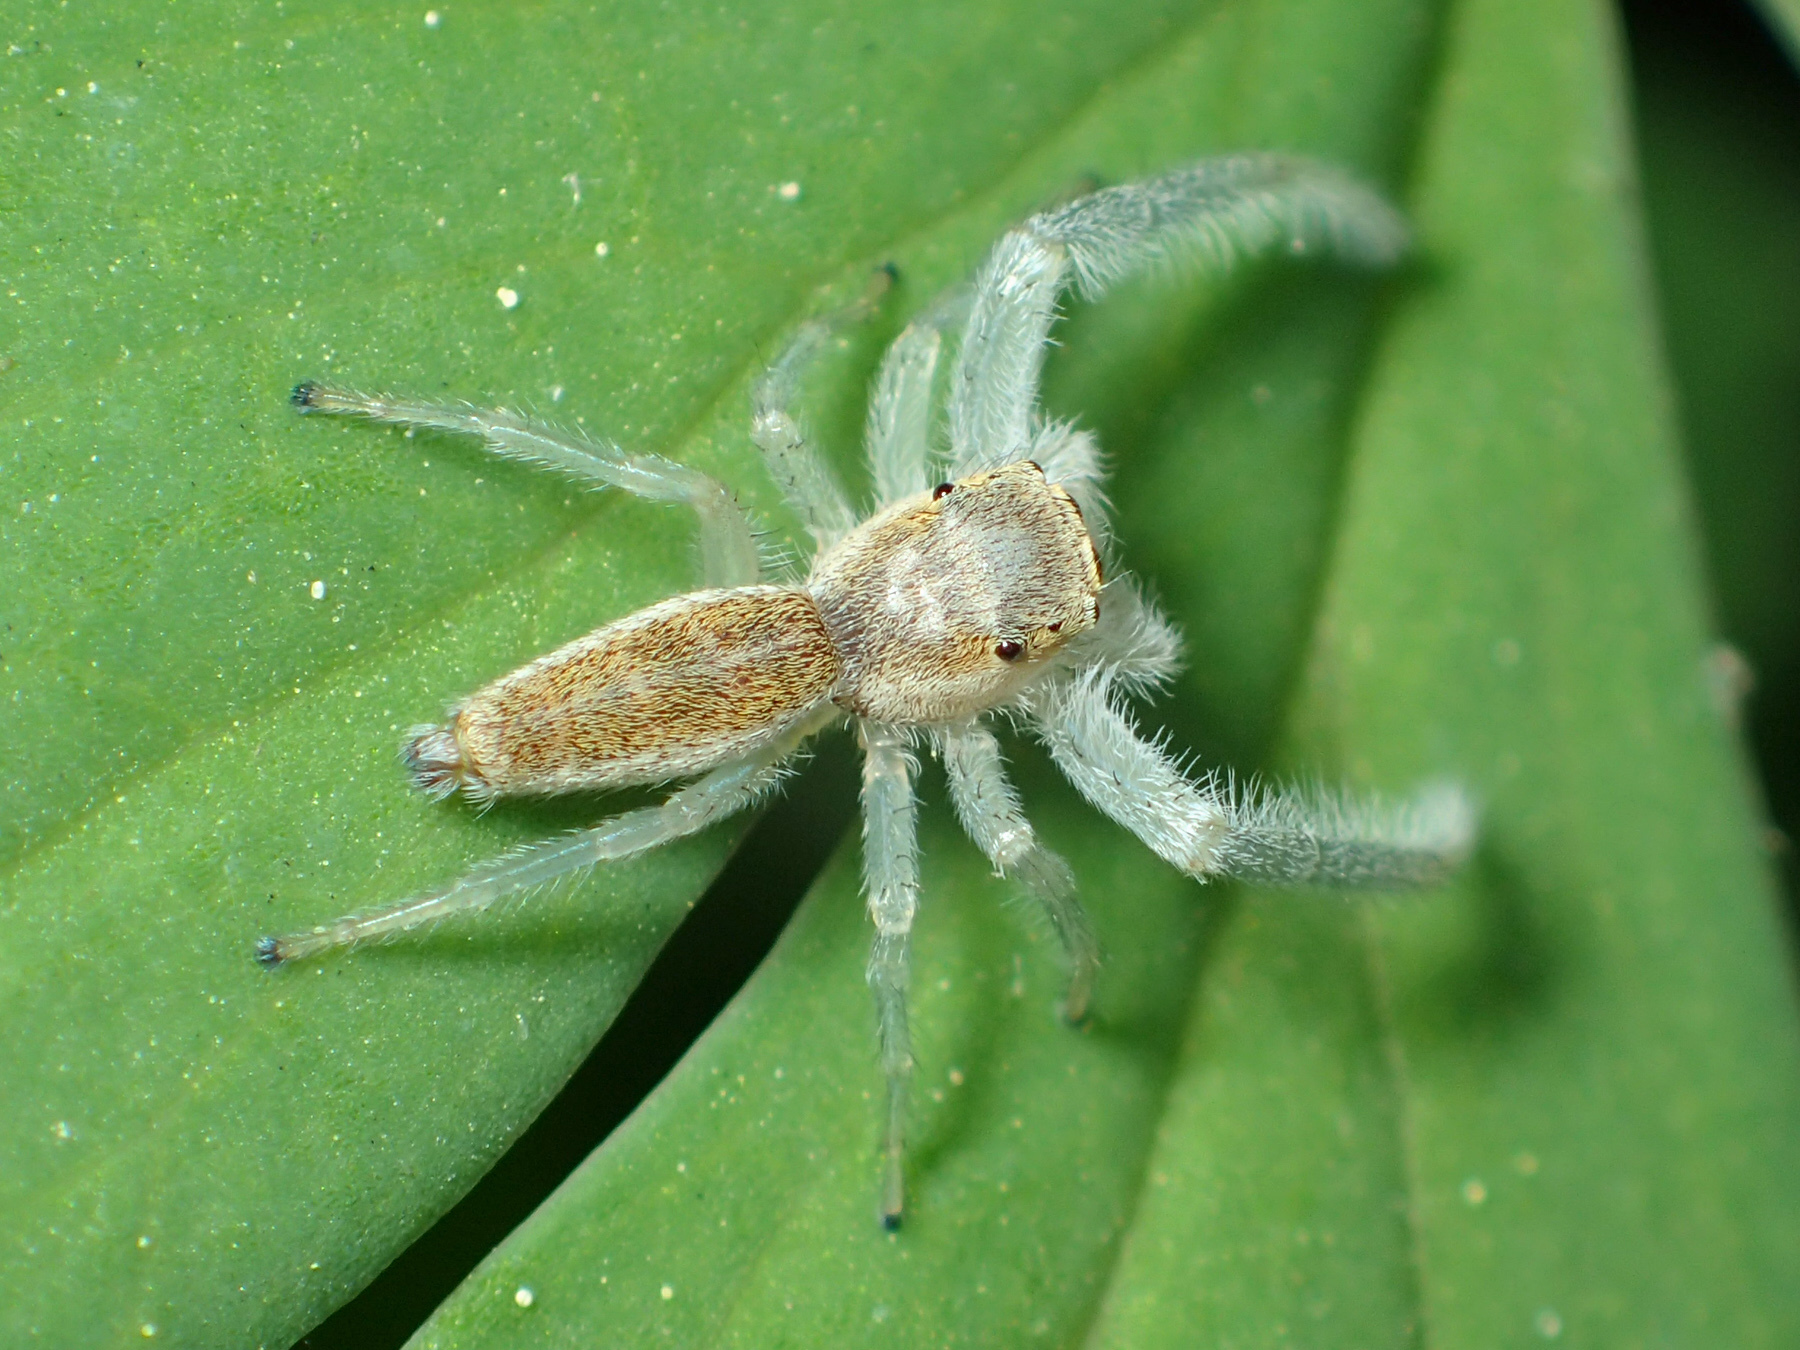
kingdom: Animalia
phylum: Arthropoda
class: Arachnida
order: Araneae
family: Salticidae
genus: Hentzia
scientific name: Hentzia mitrata
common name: White-jawed jumping spider
